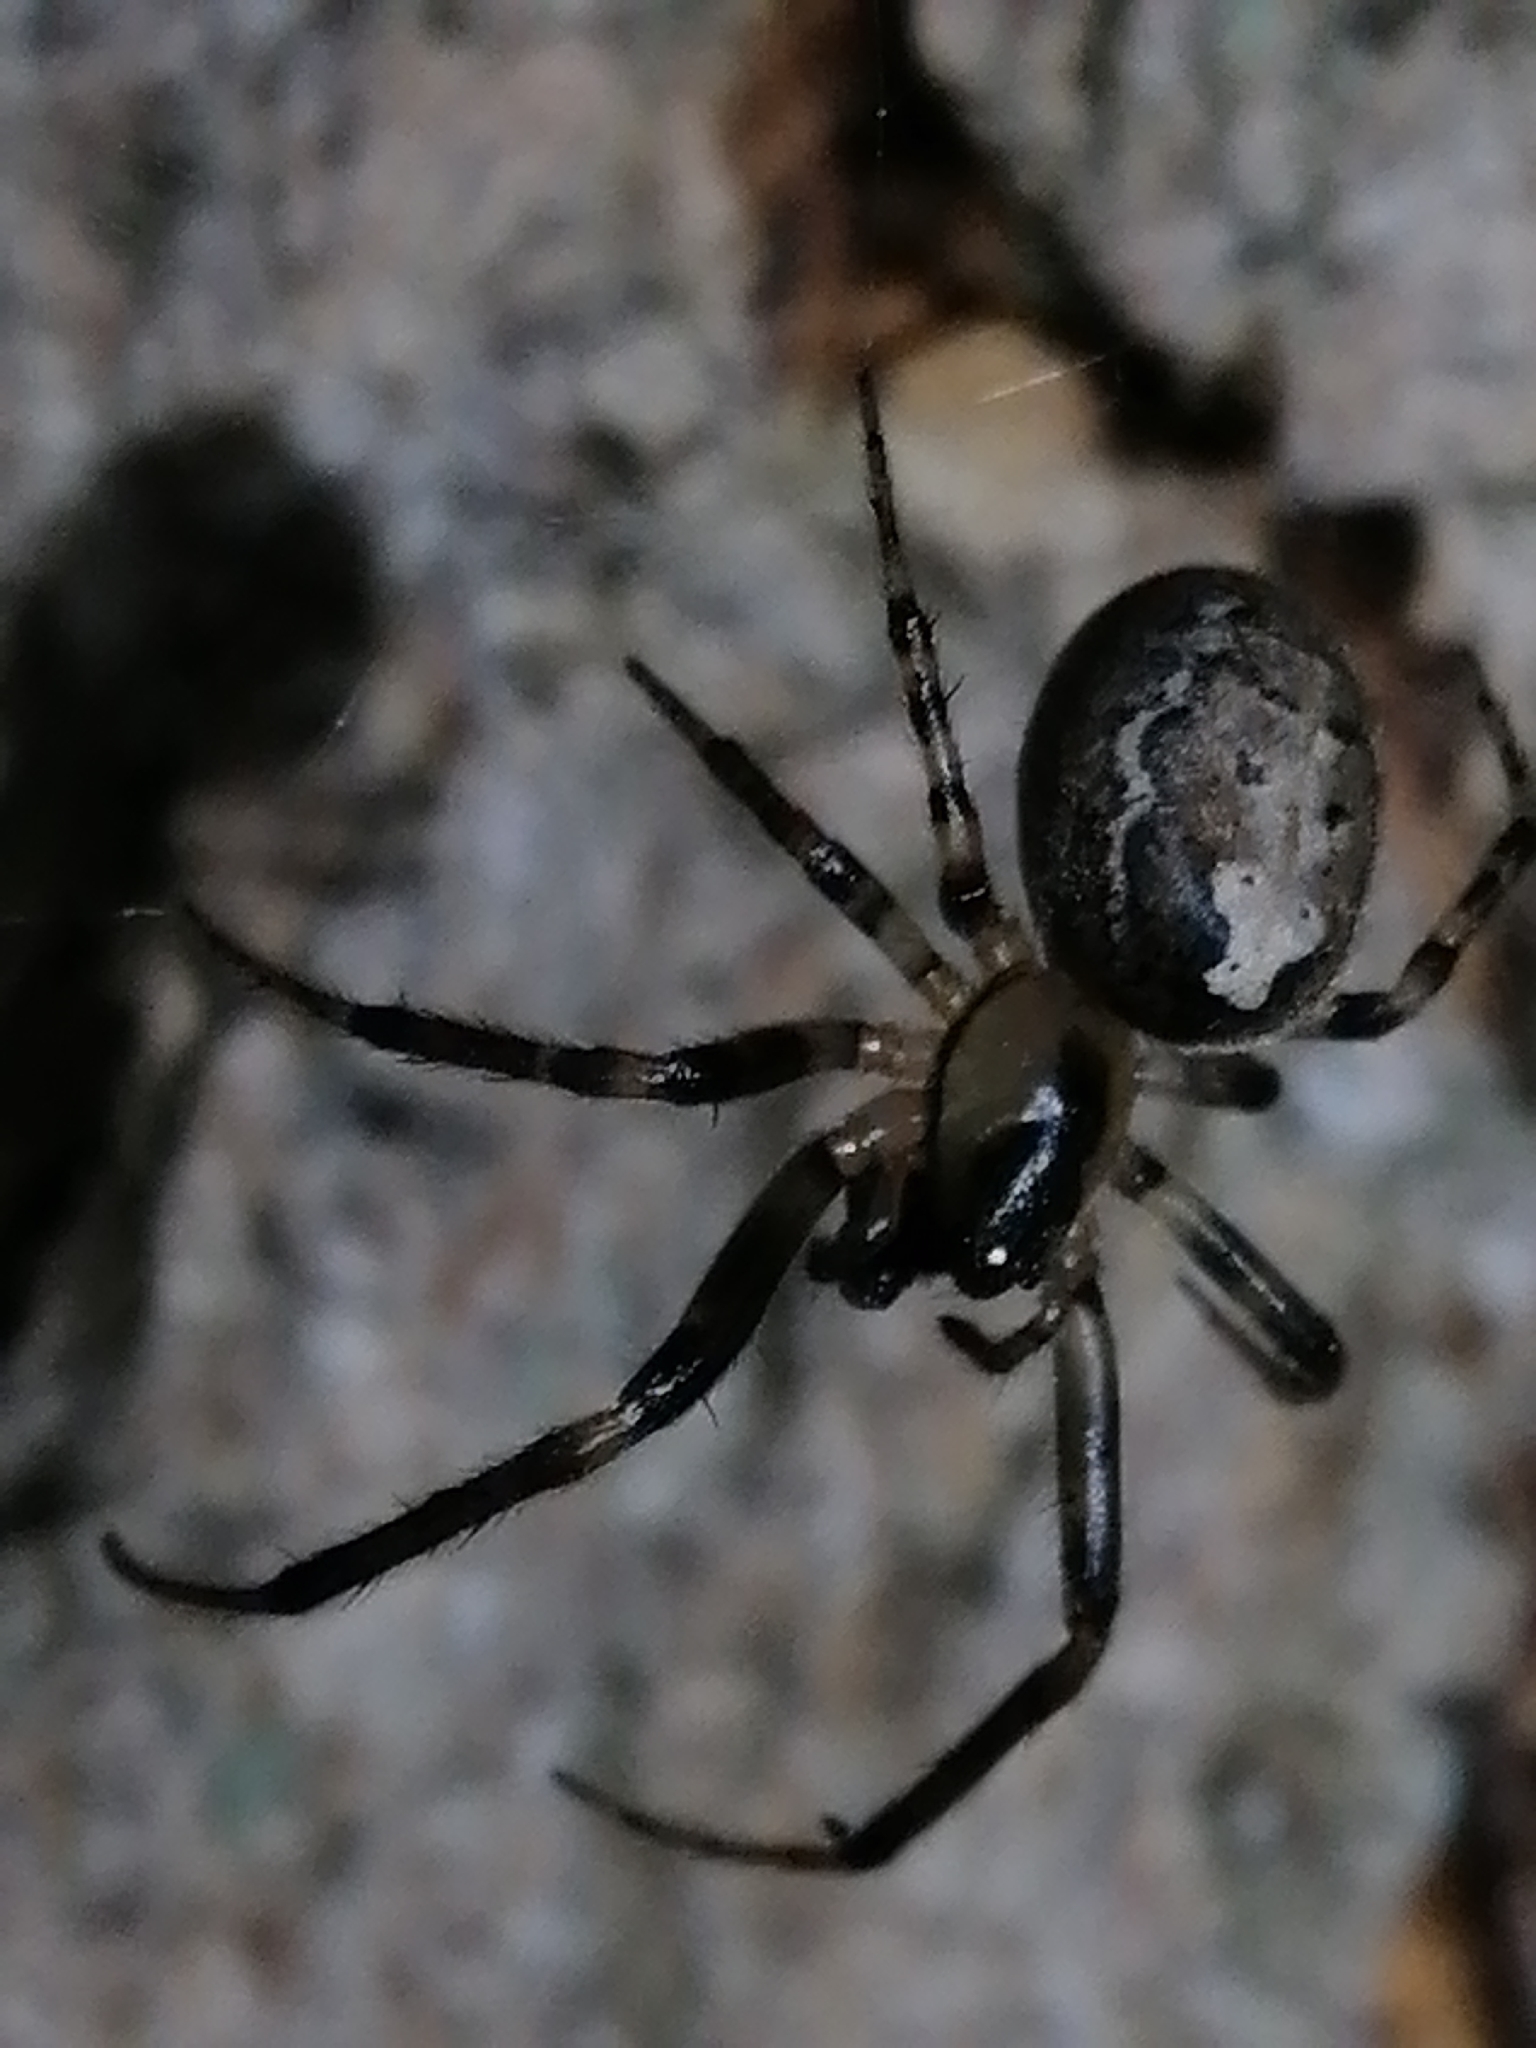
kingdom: Animalia
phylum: Arthropoda
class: Arachnida
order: Araneae
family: Araneidae
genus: Zygiella
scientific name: Zygiella x-notata
